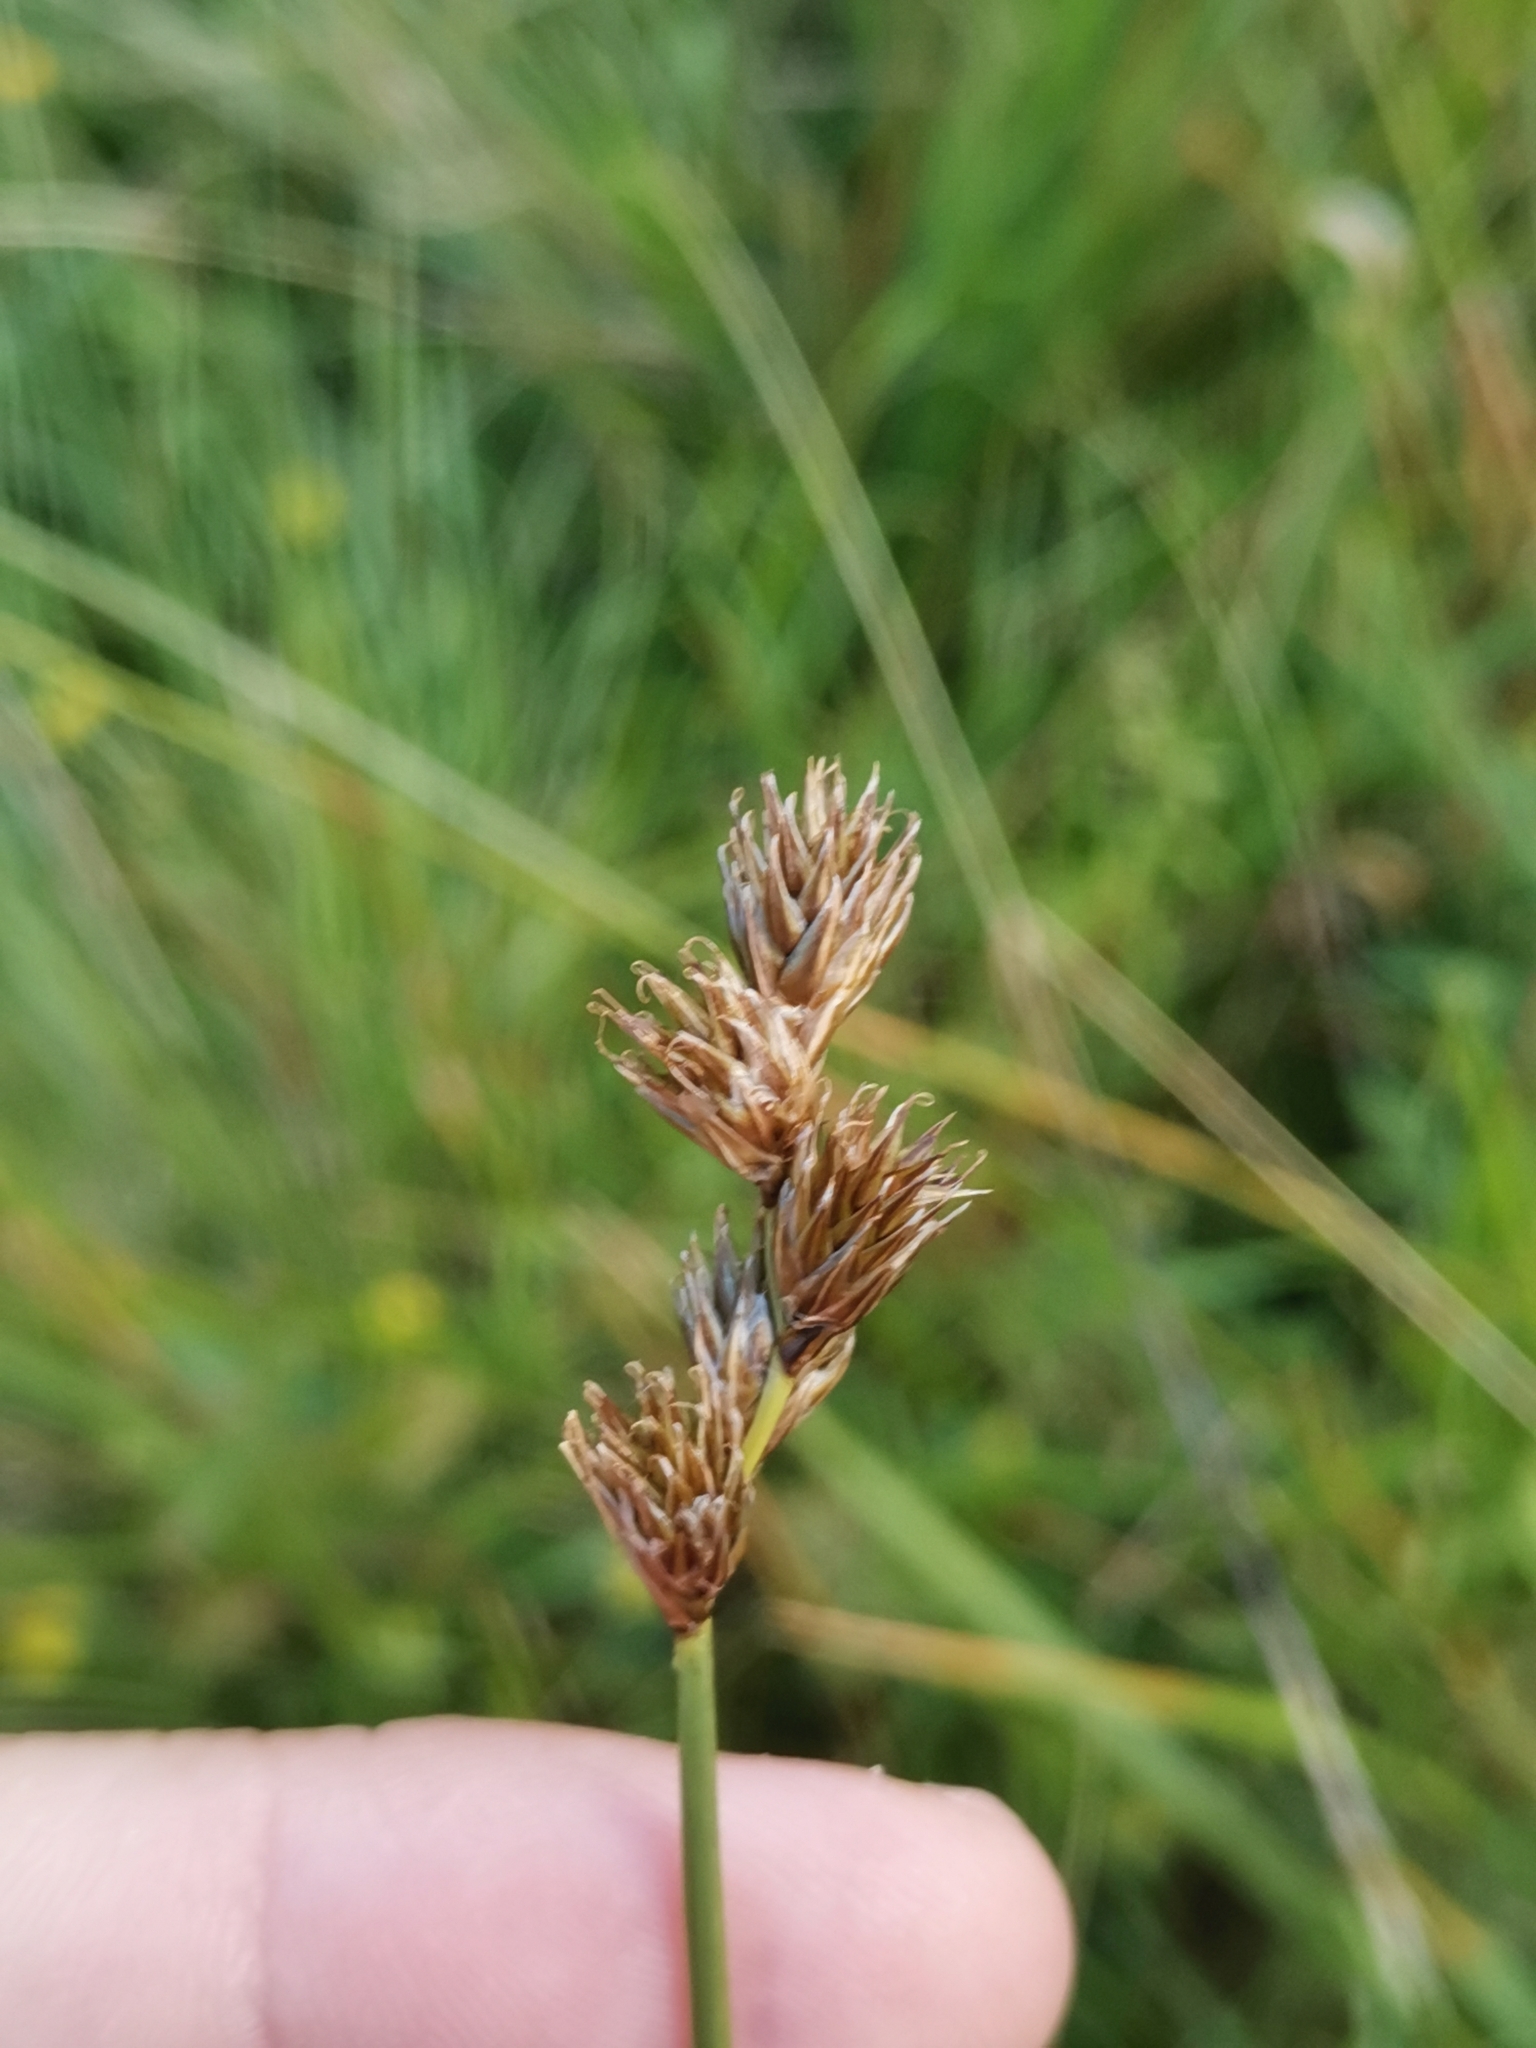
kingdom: Plantae
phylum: Tracheophyta
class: Liliopsida
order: Poales
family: Cyperaceae
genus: Carex
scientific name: Carex leporina
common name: Oval sedge
